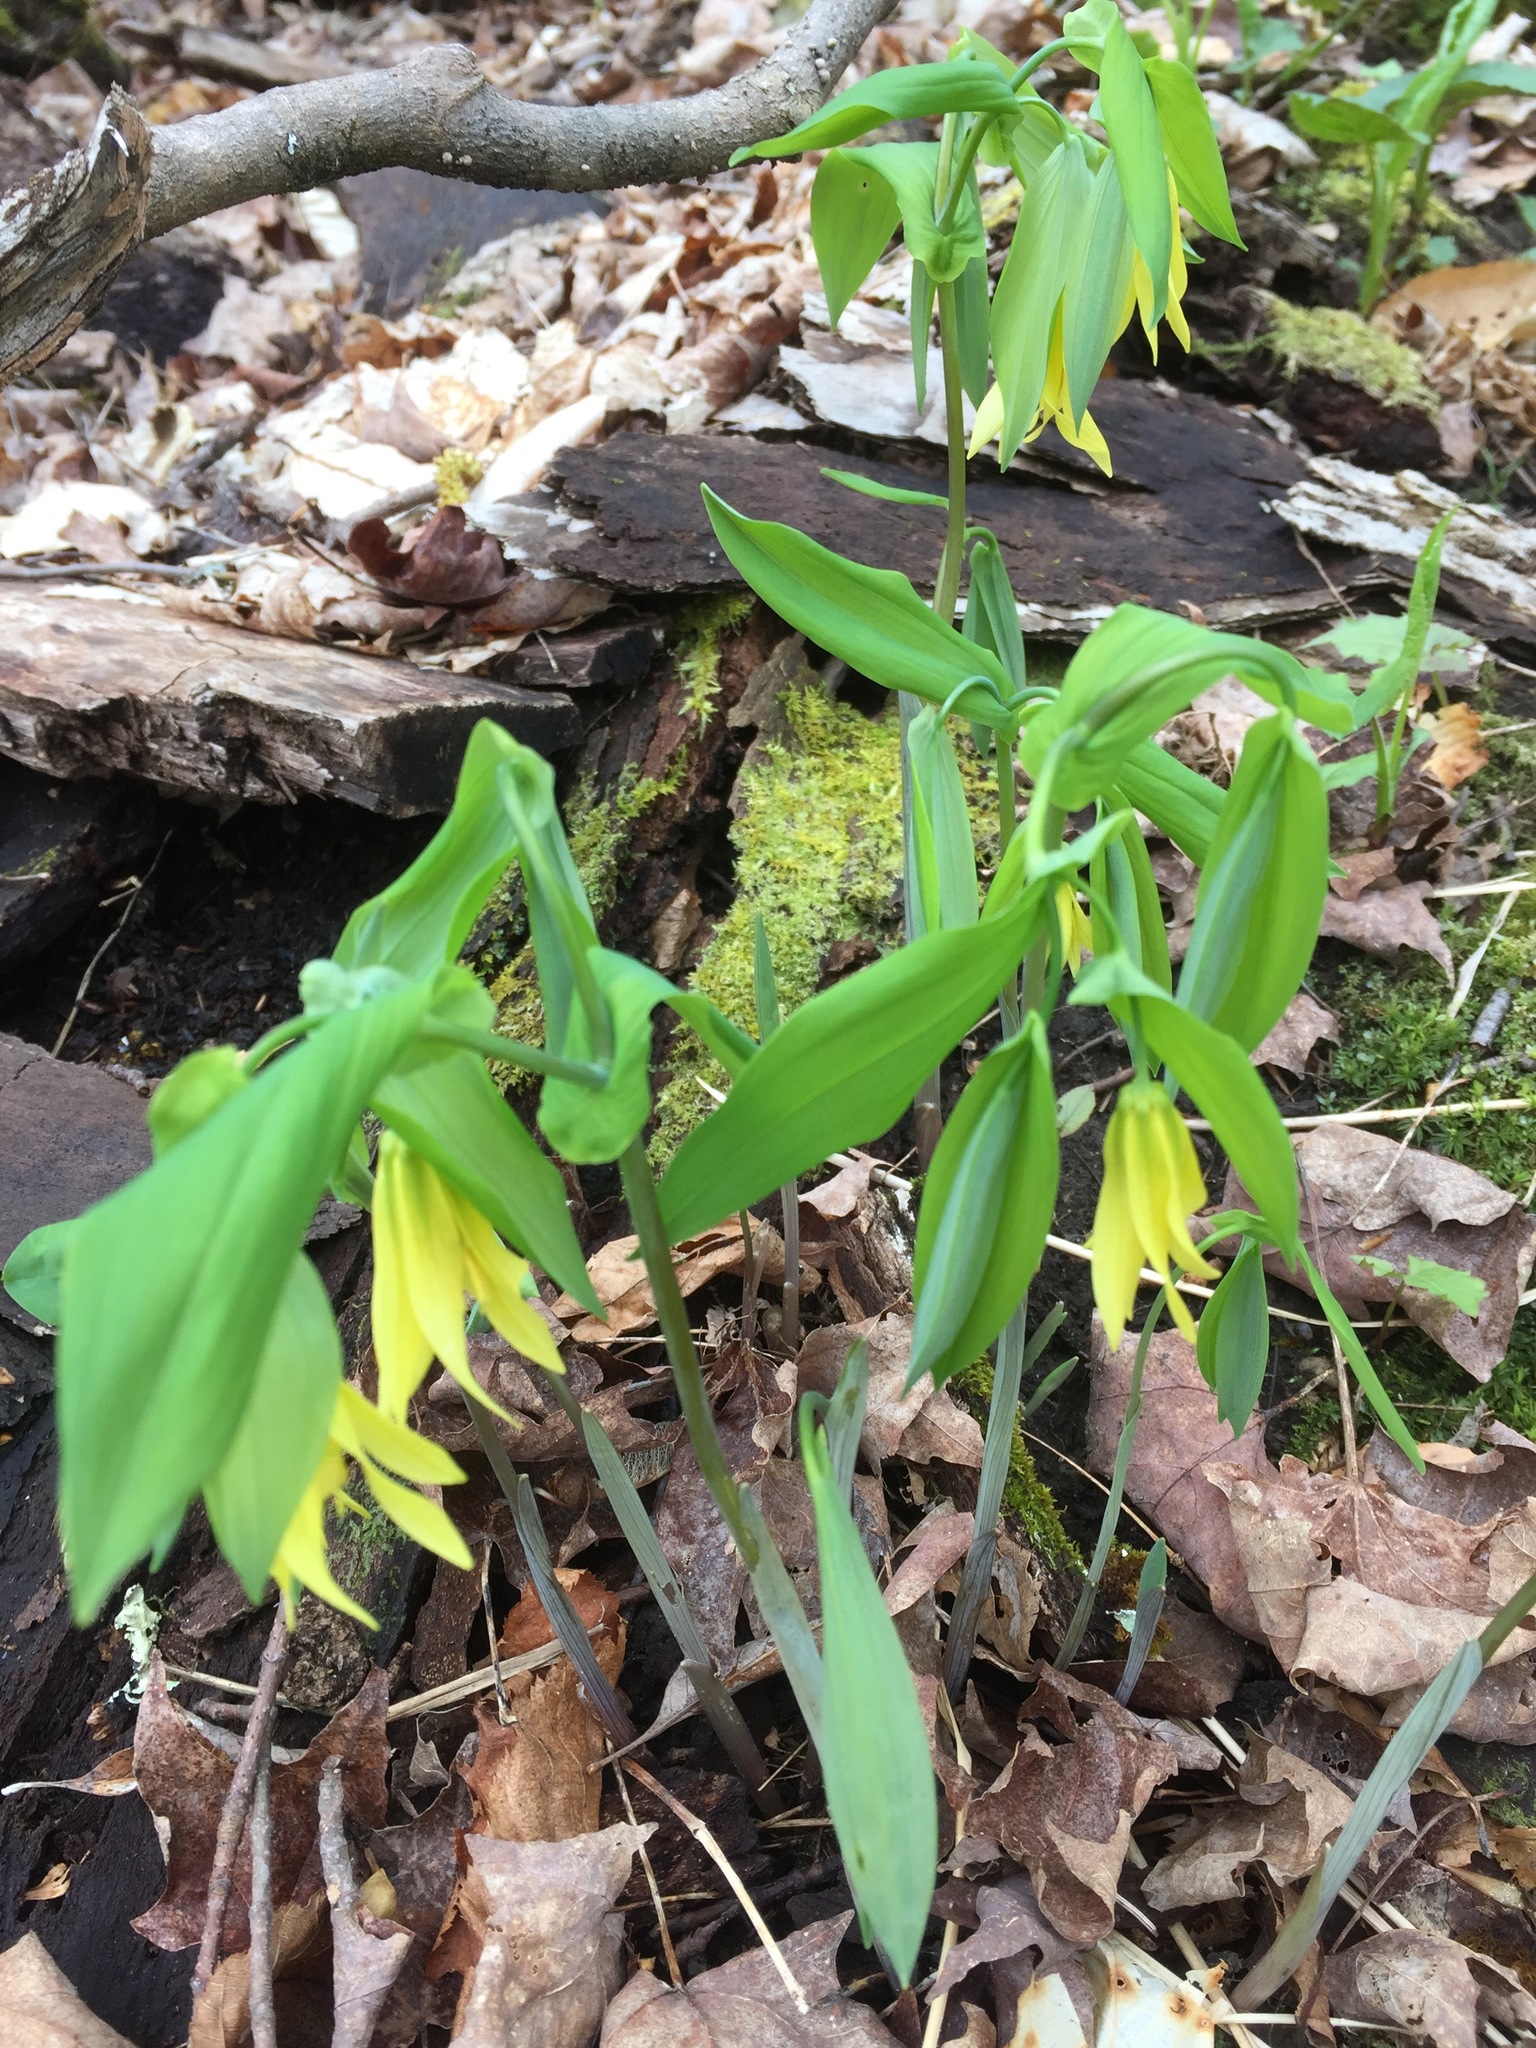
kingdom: Plantae
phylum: Tracheophyta
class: Liliopsida
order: Liliales
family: Colchicaceae
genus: Uvularia
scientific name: Uvularia grandiflora
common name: Bellwort
